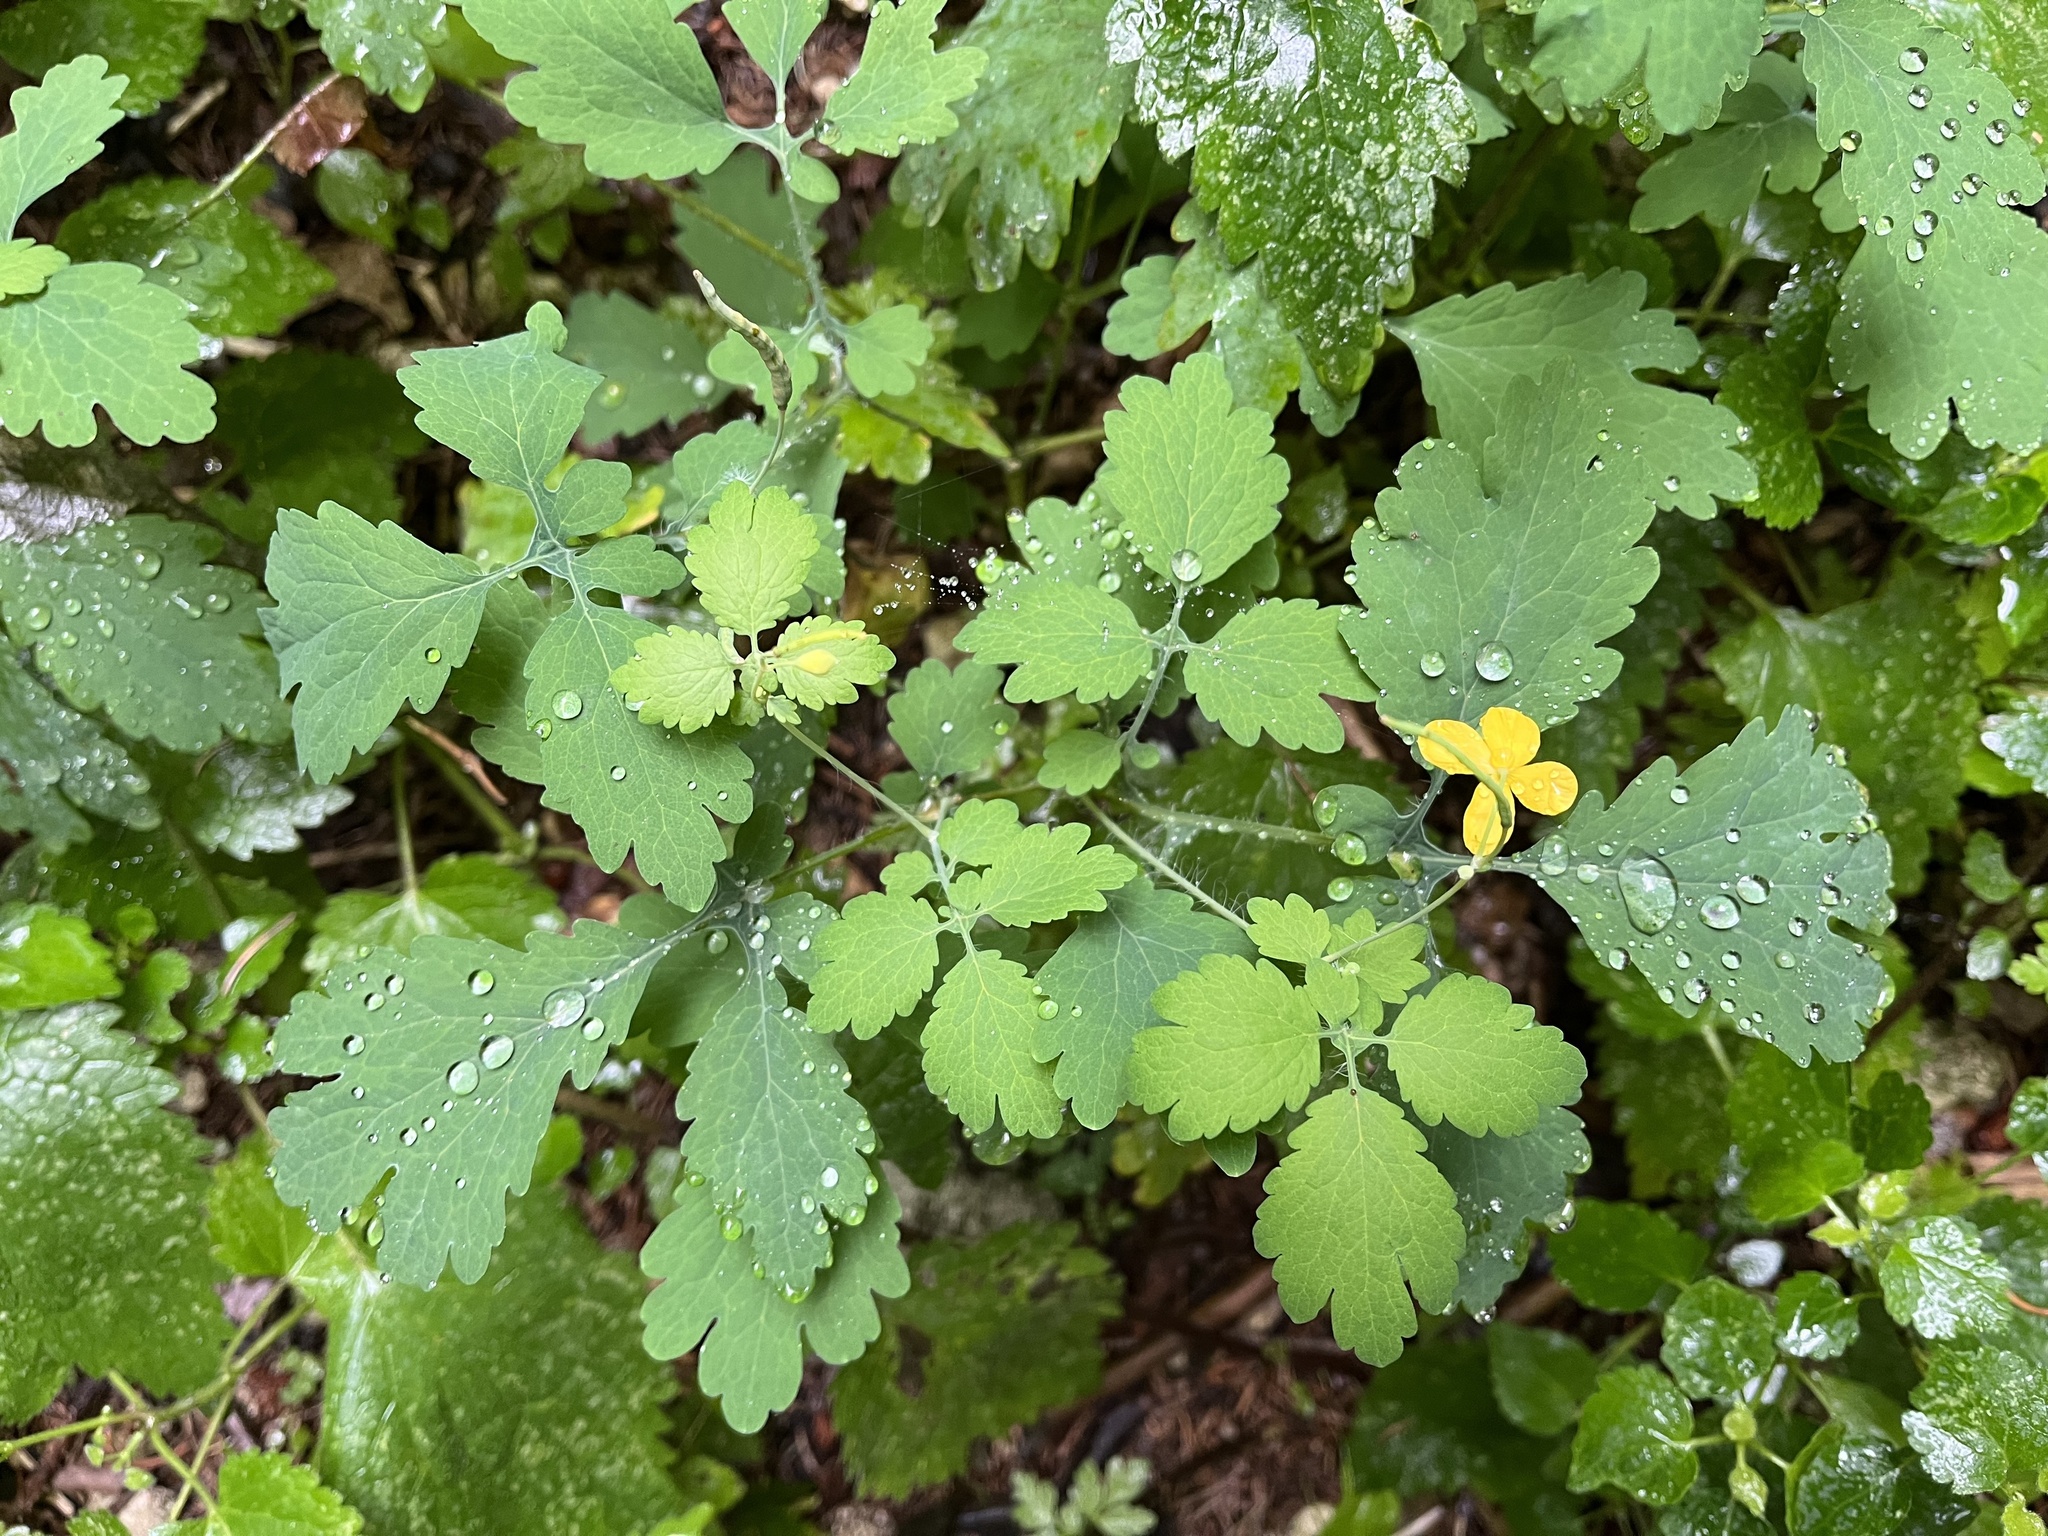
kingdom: Plantae
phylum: Tracheophyta
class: Magnoliopsida
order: Ranunculales
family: Papaveraceae
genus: Chelidonium
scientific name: Chelidonium majus
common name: Greater celandine
